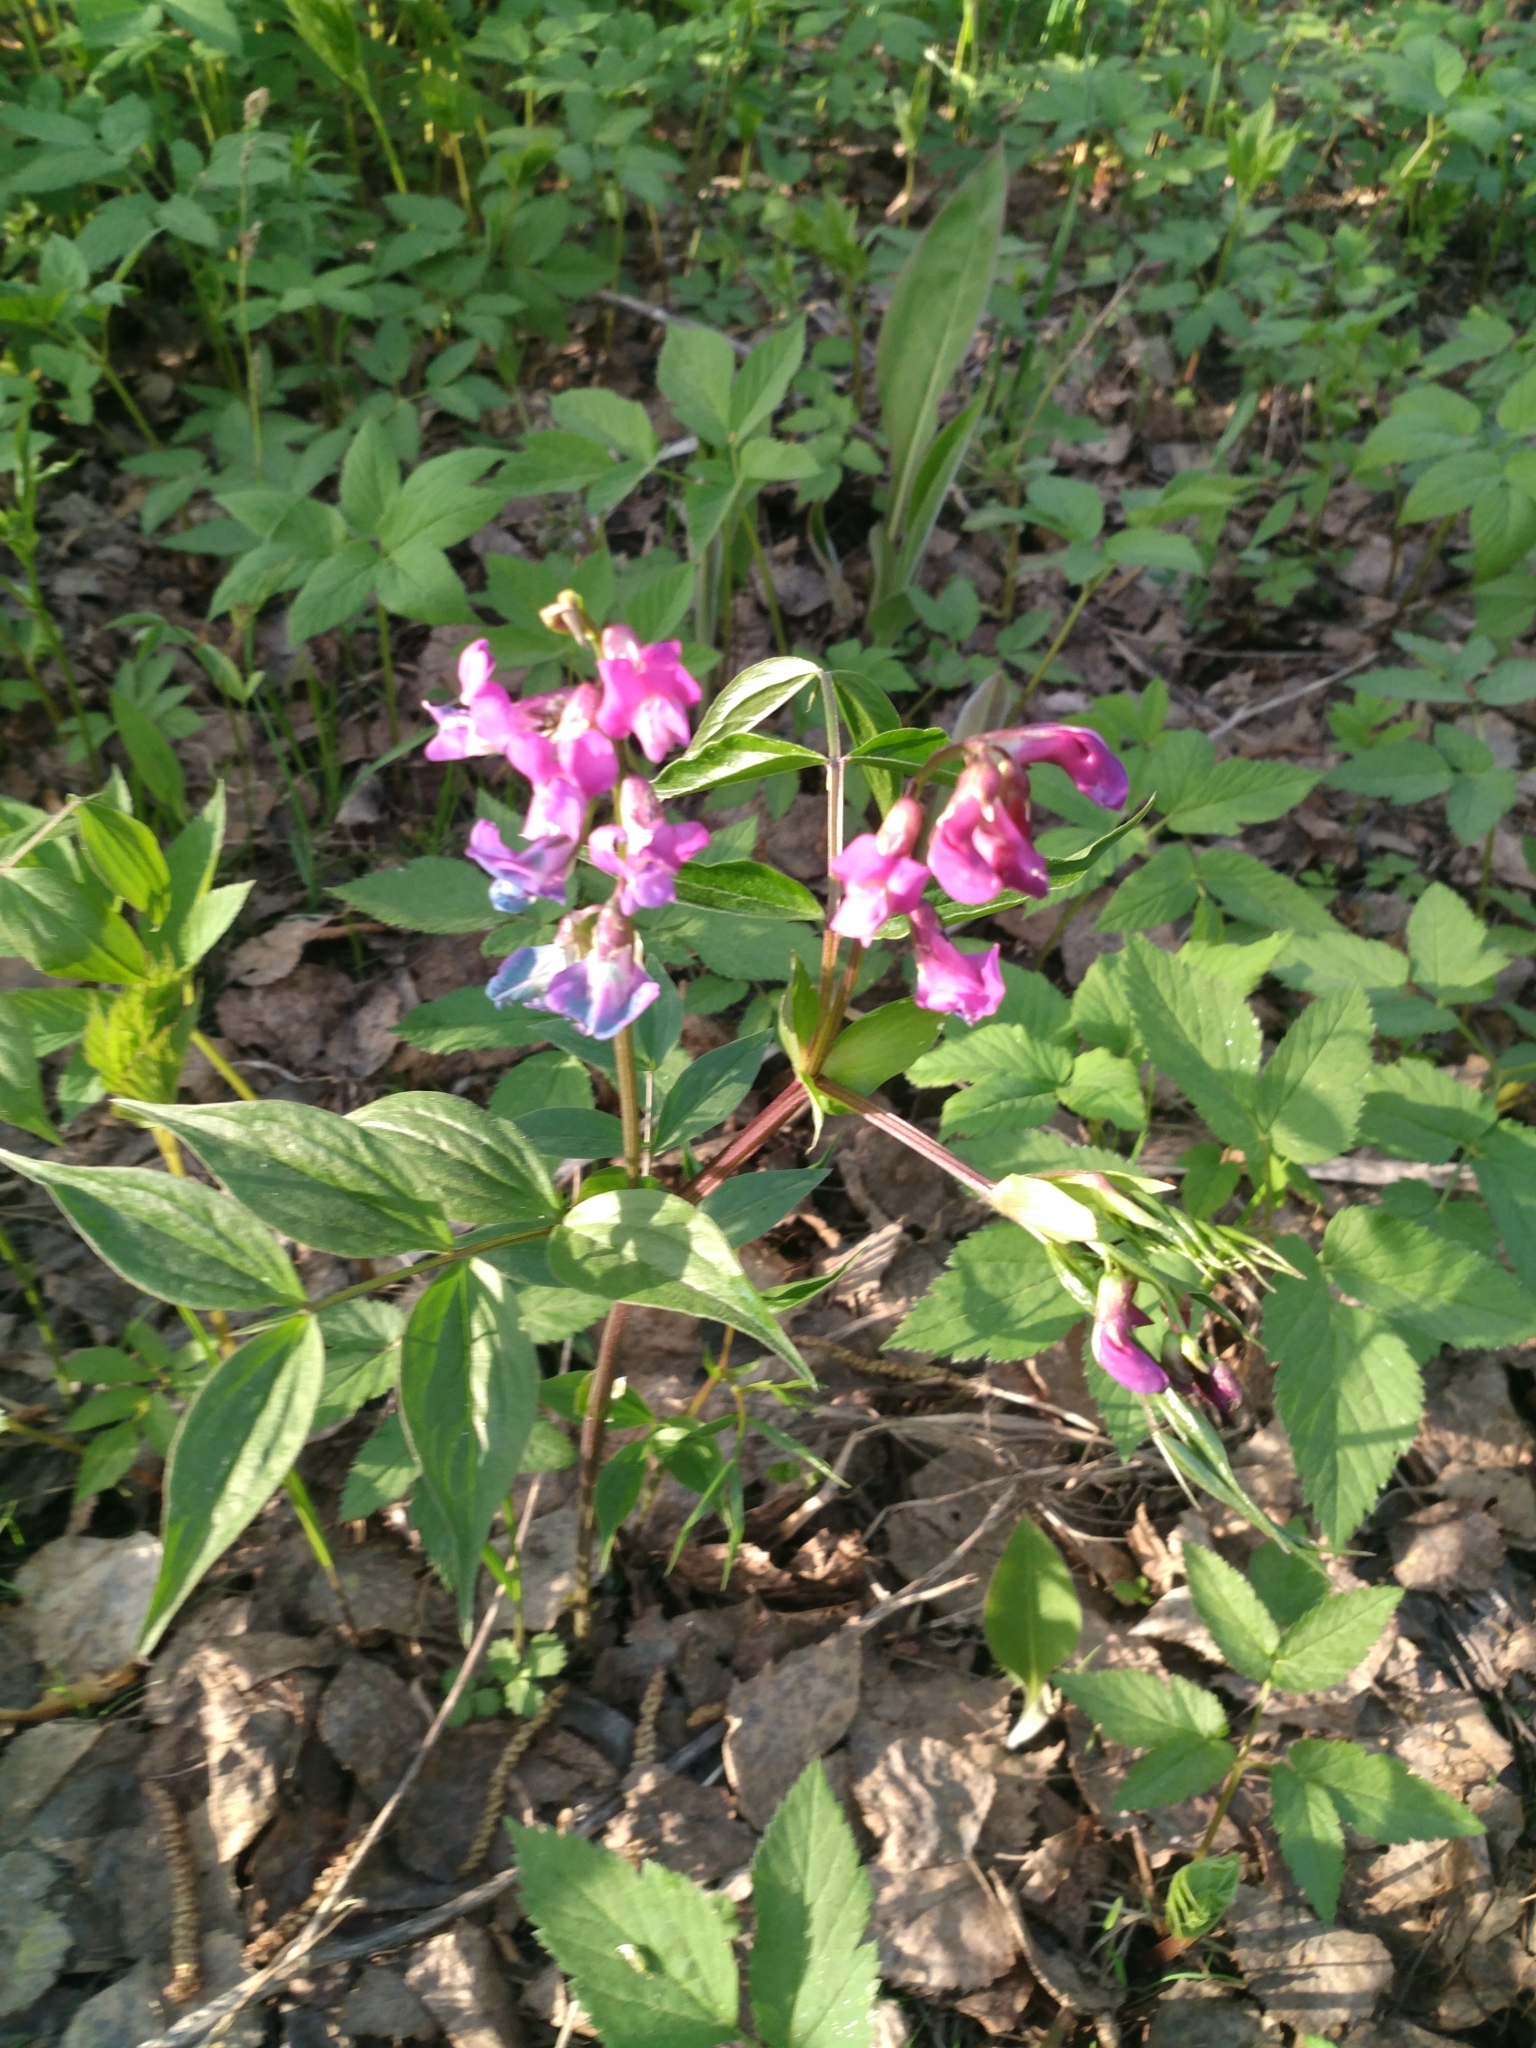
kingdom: Plantae
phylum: Tracheophyta
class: Magnoliopsida
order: Fabales
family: Fabaceae
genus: Lathyrus
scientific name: Lathyrus vernus
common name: Spring pea
